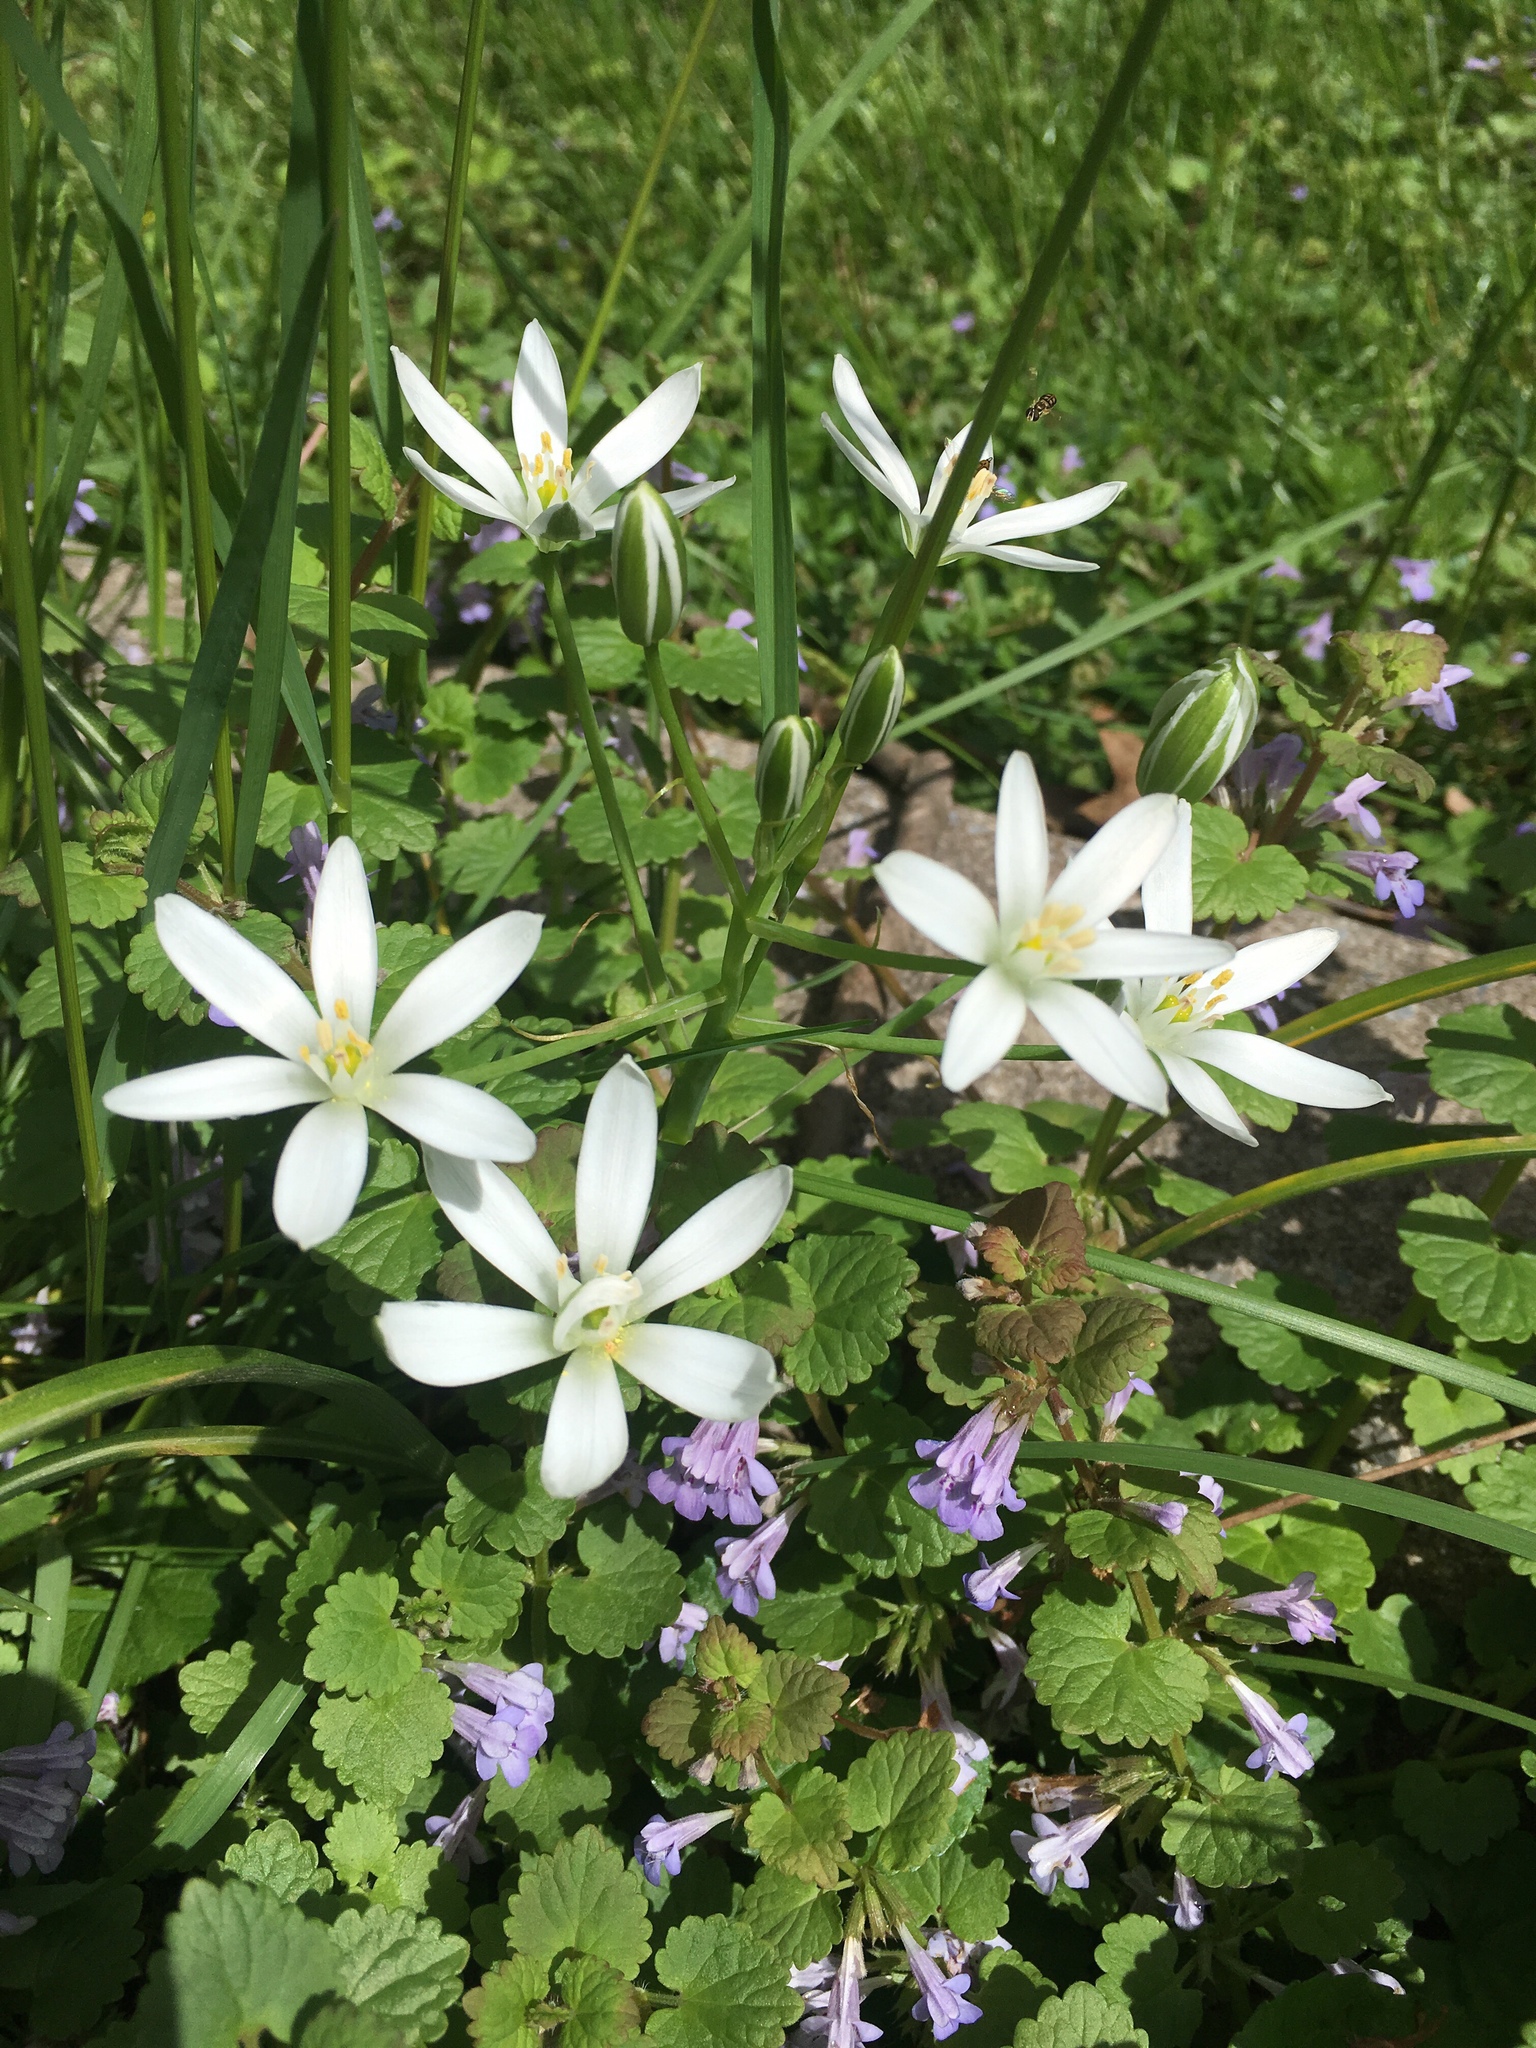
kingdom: Plantae
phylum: Tracheophyta
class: Liliopsida
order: Asparagales
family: Asparagaceae
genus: Ornithogalum
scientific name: Ornithogalum umbellatum
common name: Garden star-of-bethlehem
